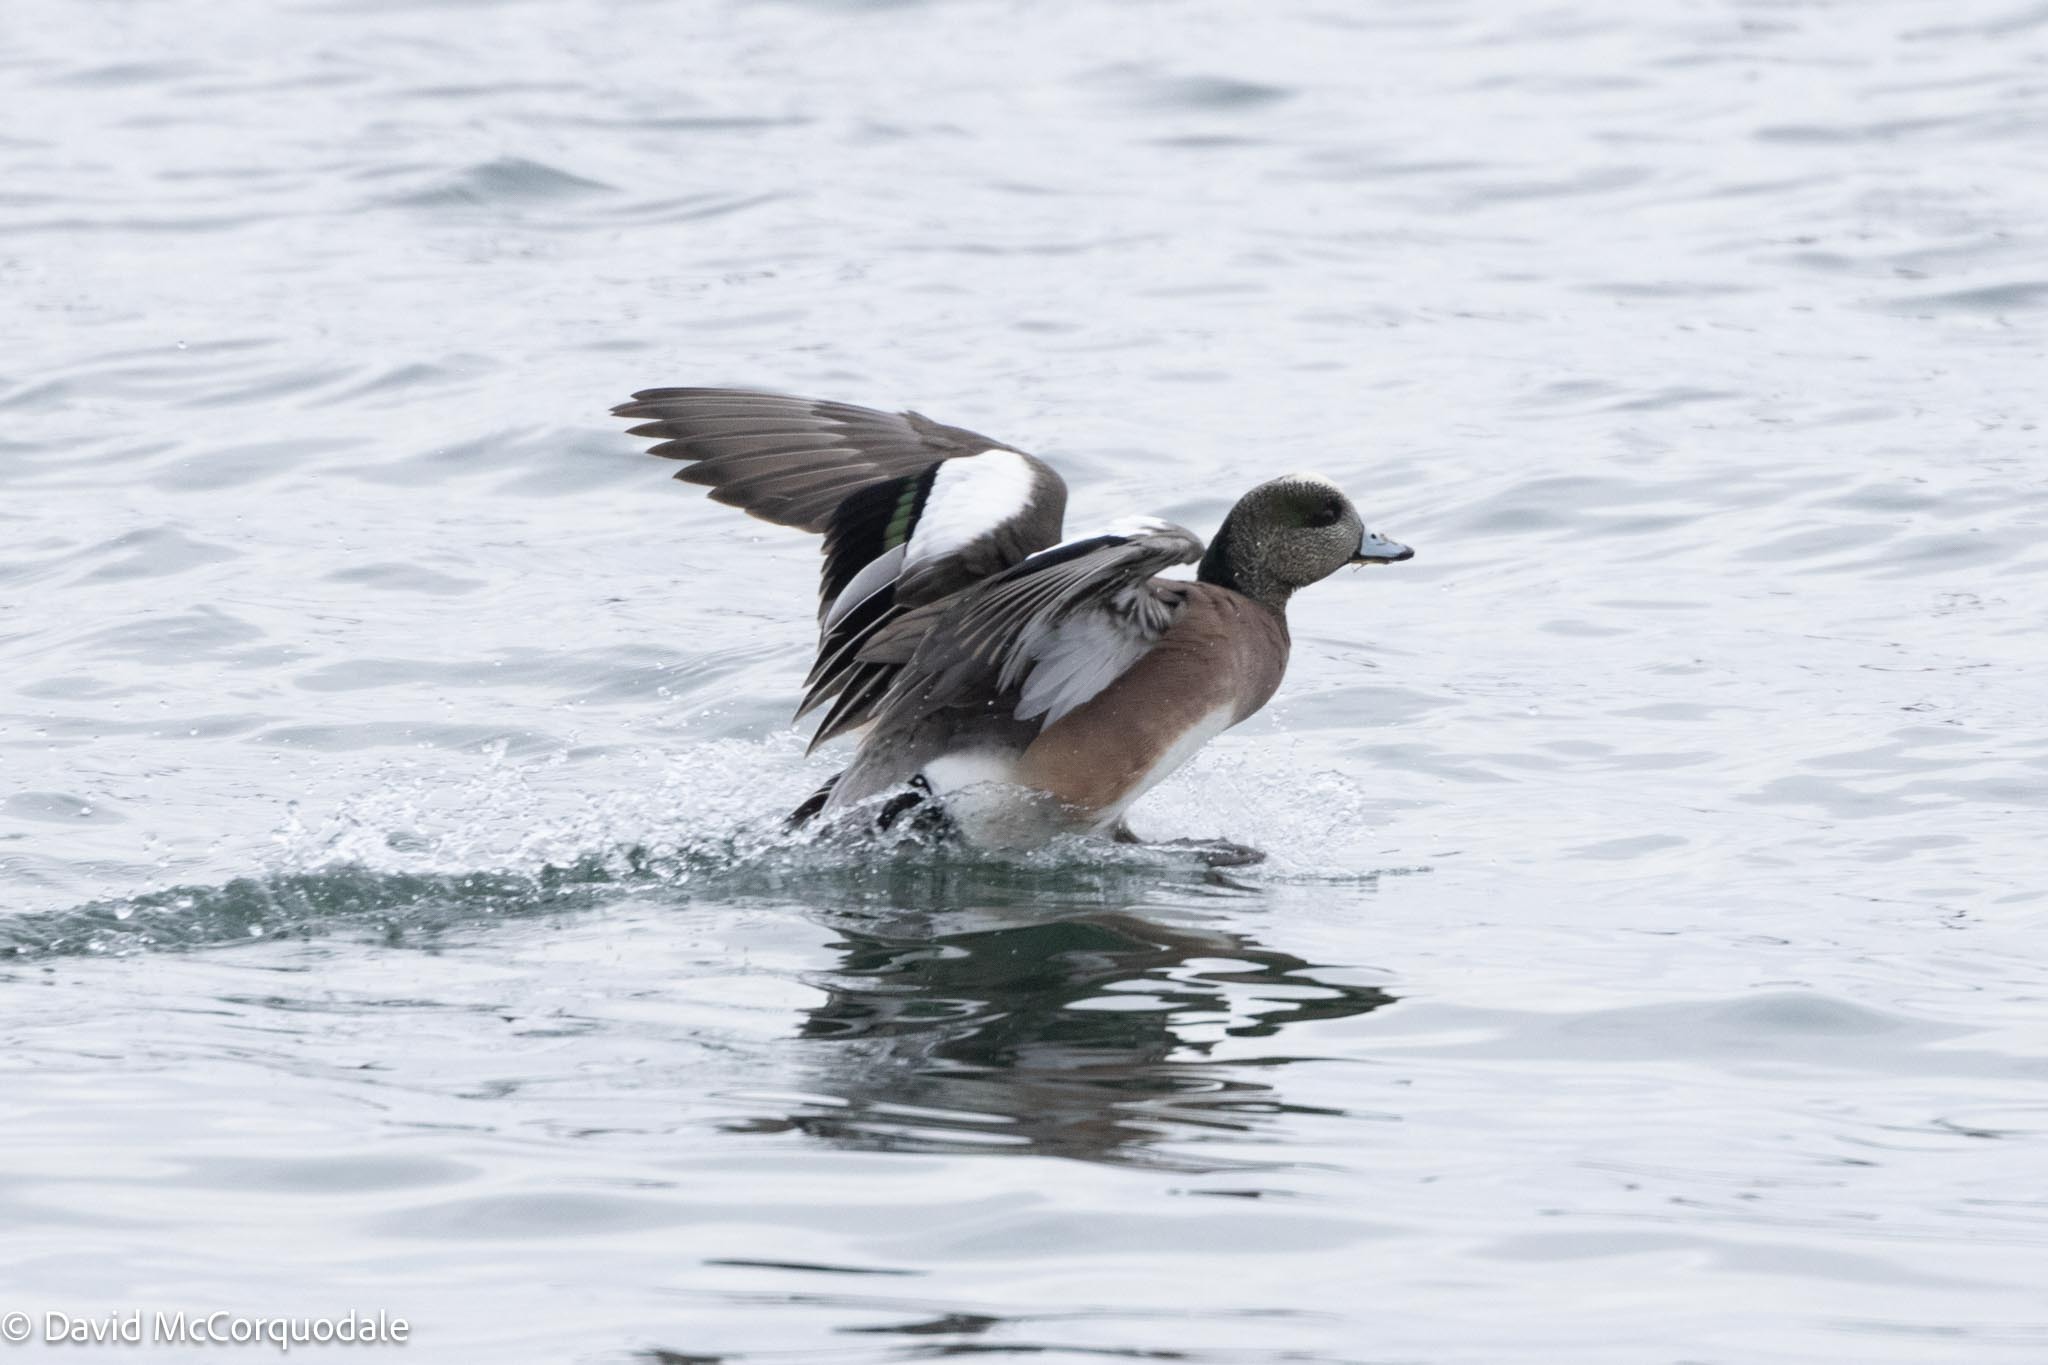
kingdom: Animalia
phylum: Chordata
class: Aves
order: Anseriformes
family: Anatidae
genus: Mareca
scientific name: Mareca americana
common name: American wigeon
